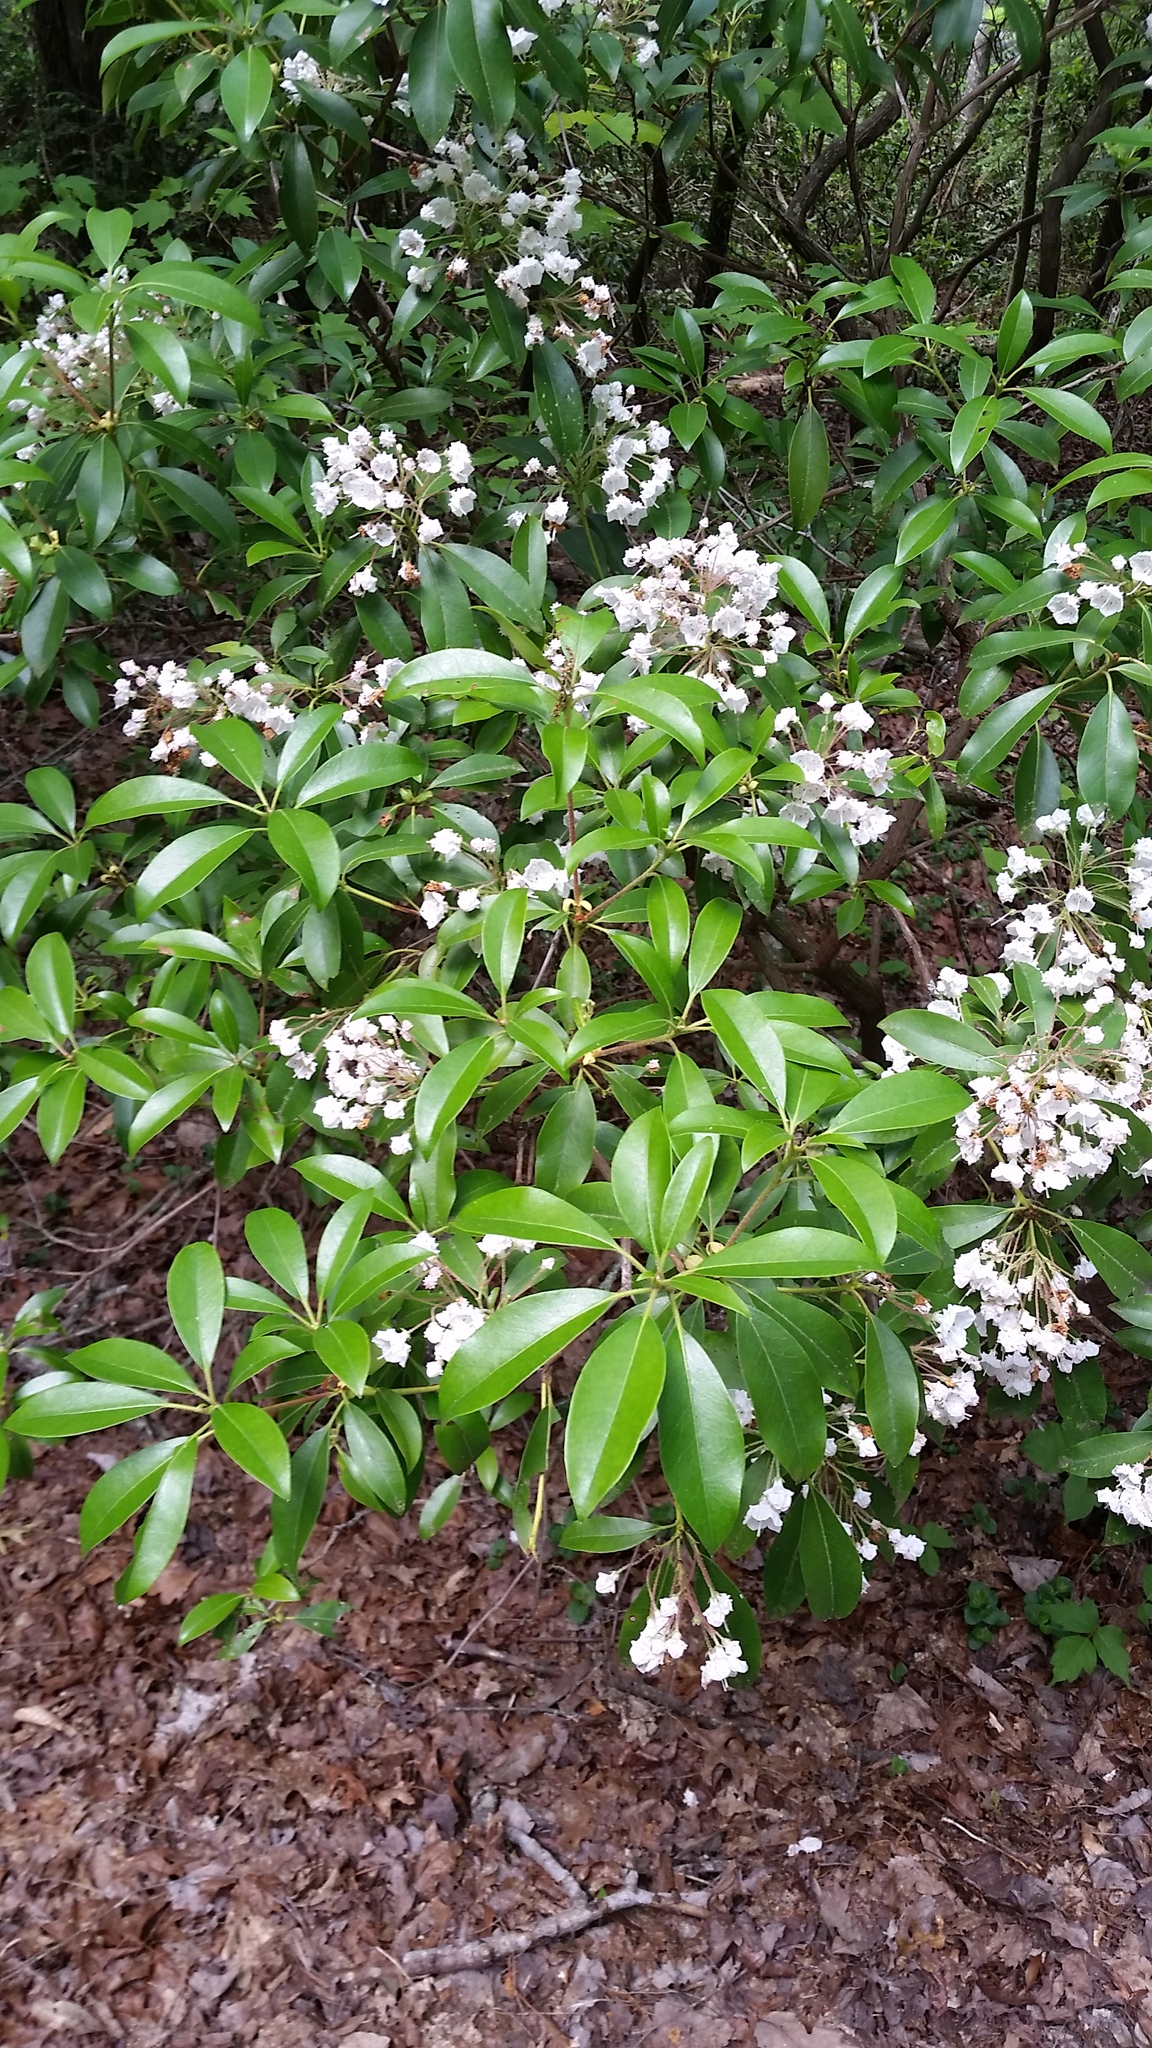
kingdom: Plantae
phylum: Tracheophyta
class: Magnoliopsida
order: Ericales
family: Ericaceae
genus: Kalmia
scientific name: Kalmia latifolia
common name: Mountain-laurel
